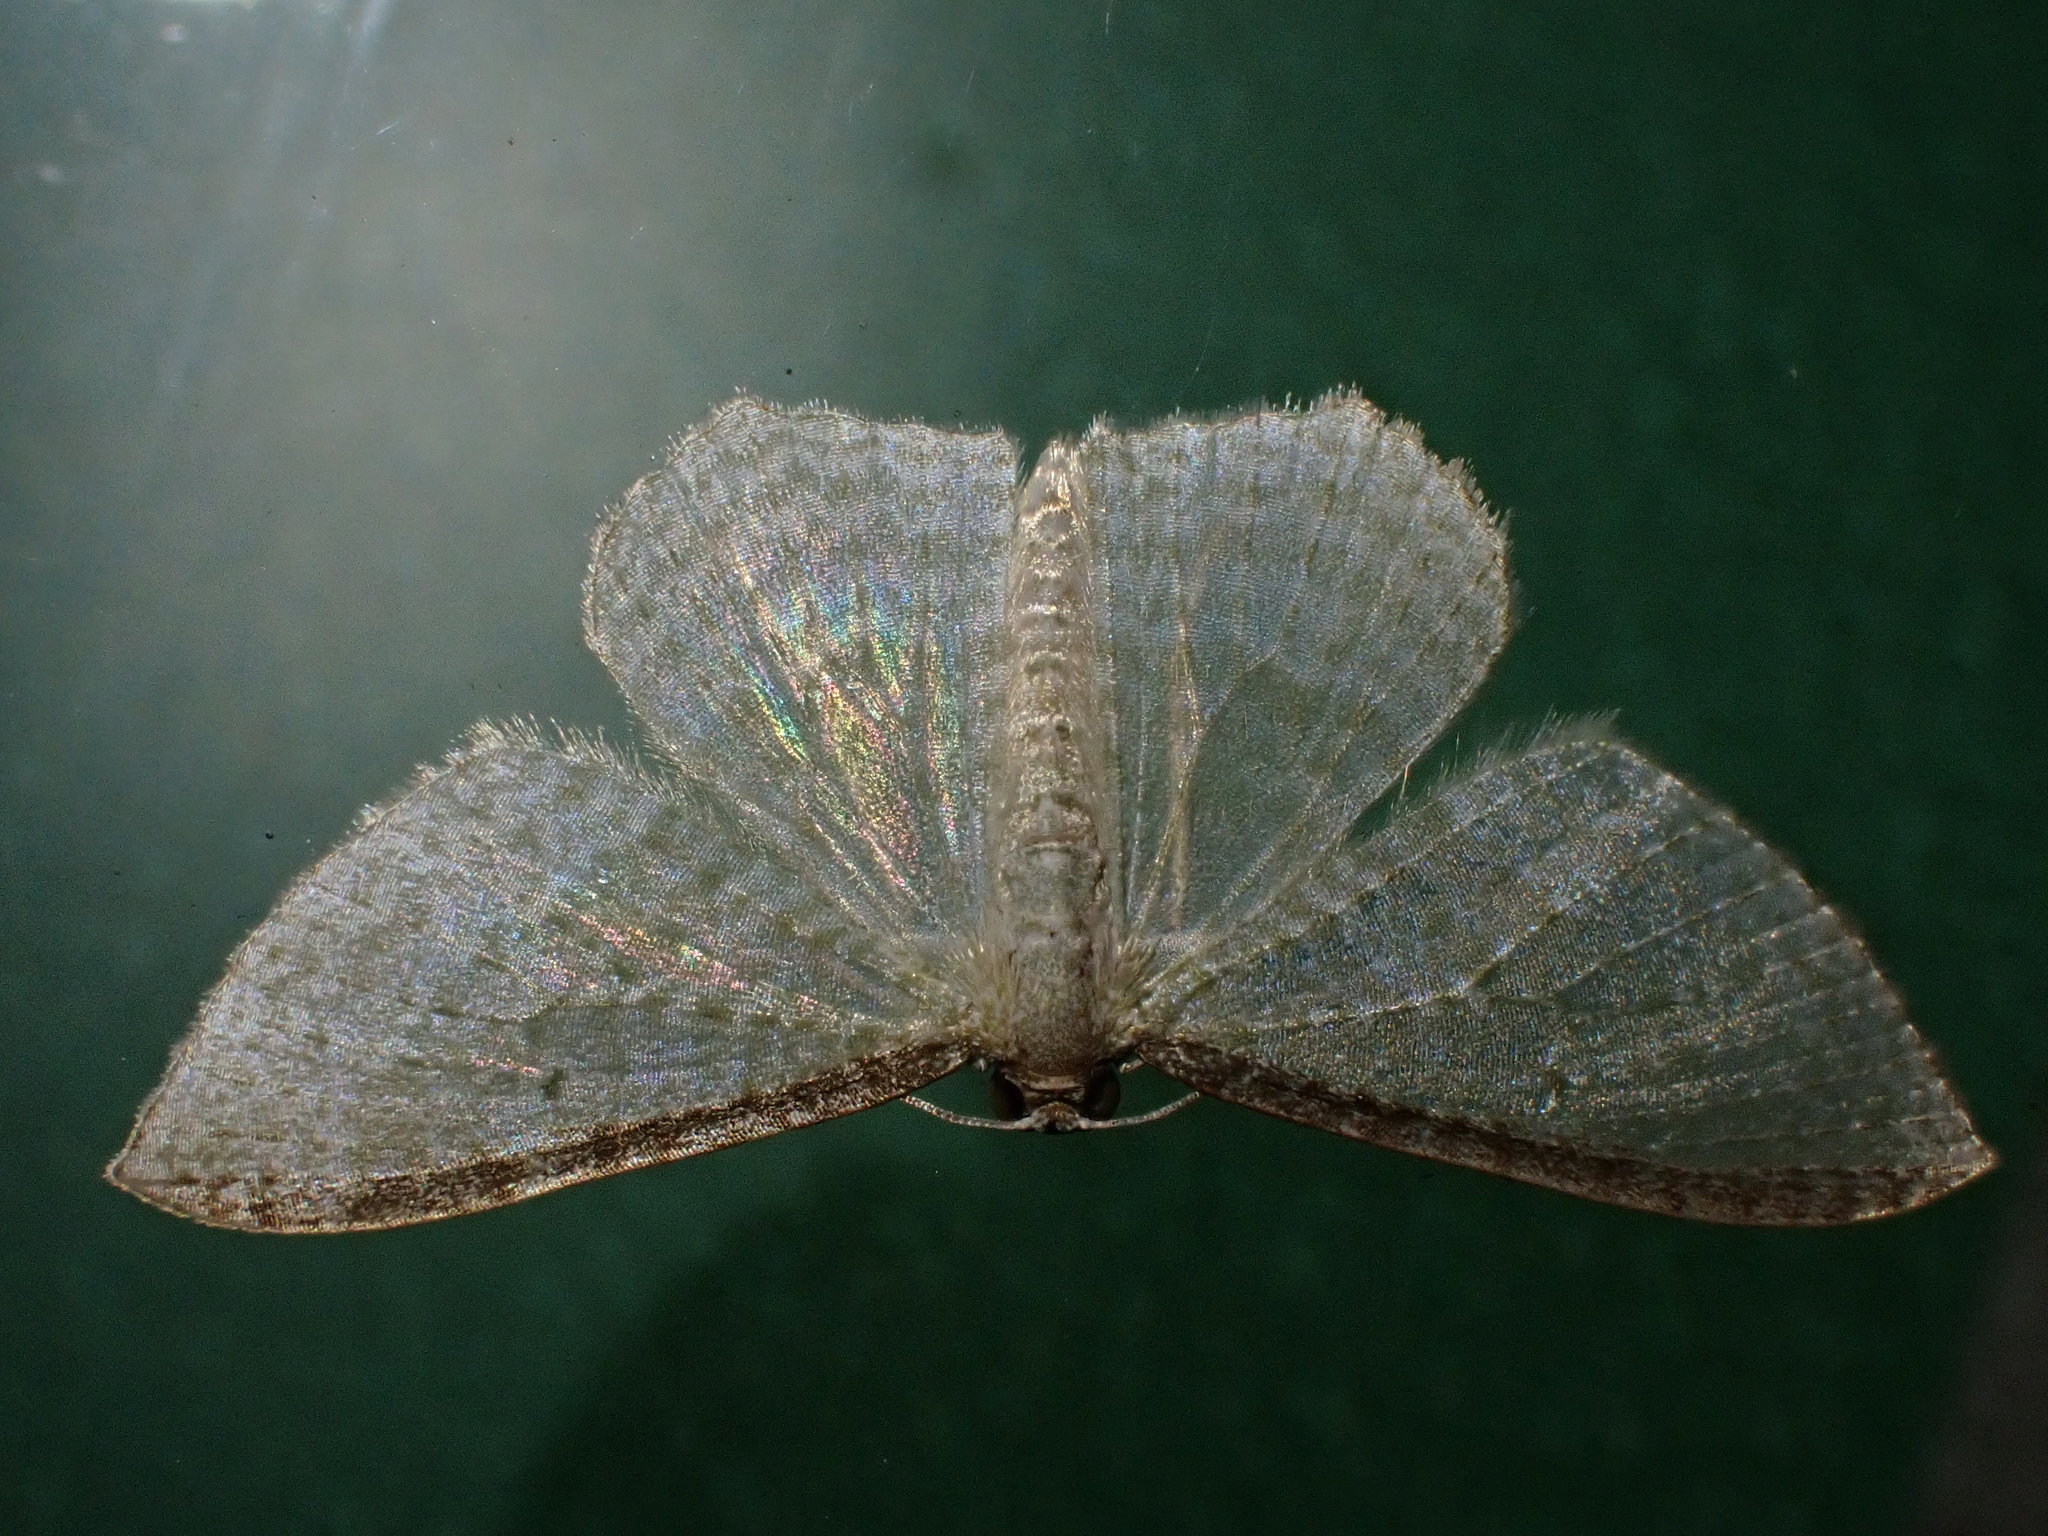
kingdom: Animalia
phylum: Arthropoda
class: Insecta
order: Lepidoptera
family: Geometridae
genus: Poecilasthena
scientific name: Poecilasthena pulchraria
